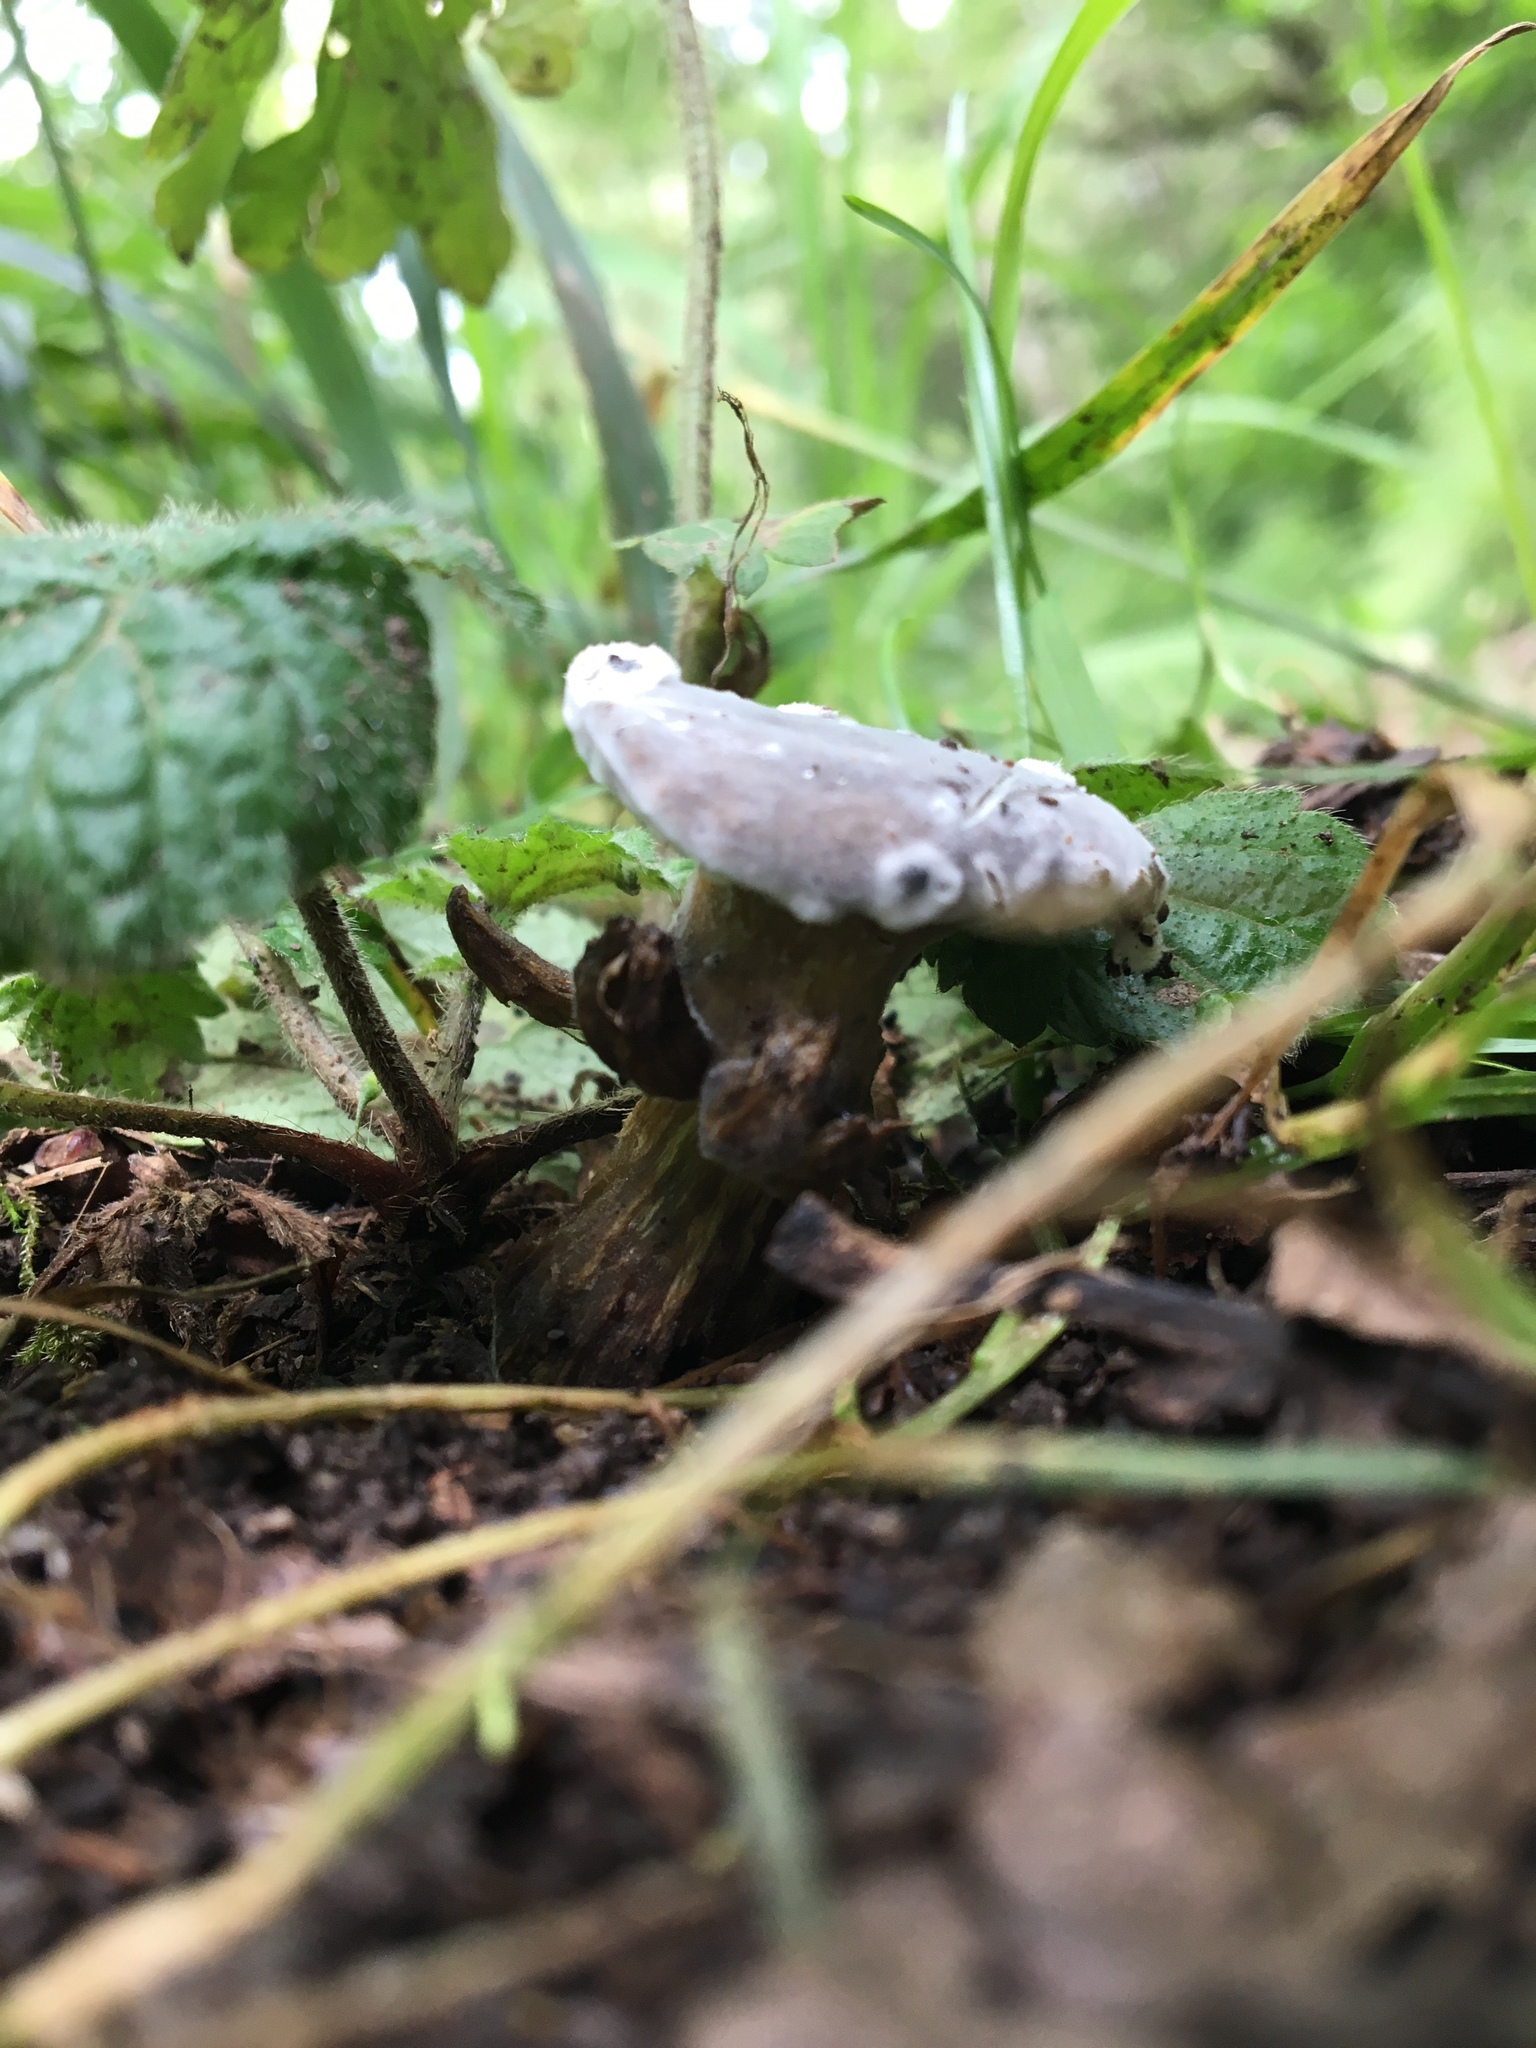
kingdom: Fungi
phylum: Ascomycota
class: Sordariomycetes
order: Hypocreales
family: Hypocreaceae
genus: Hypomyces
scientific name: Hypomyces chrysospermus
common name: Bolete mould
